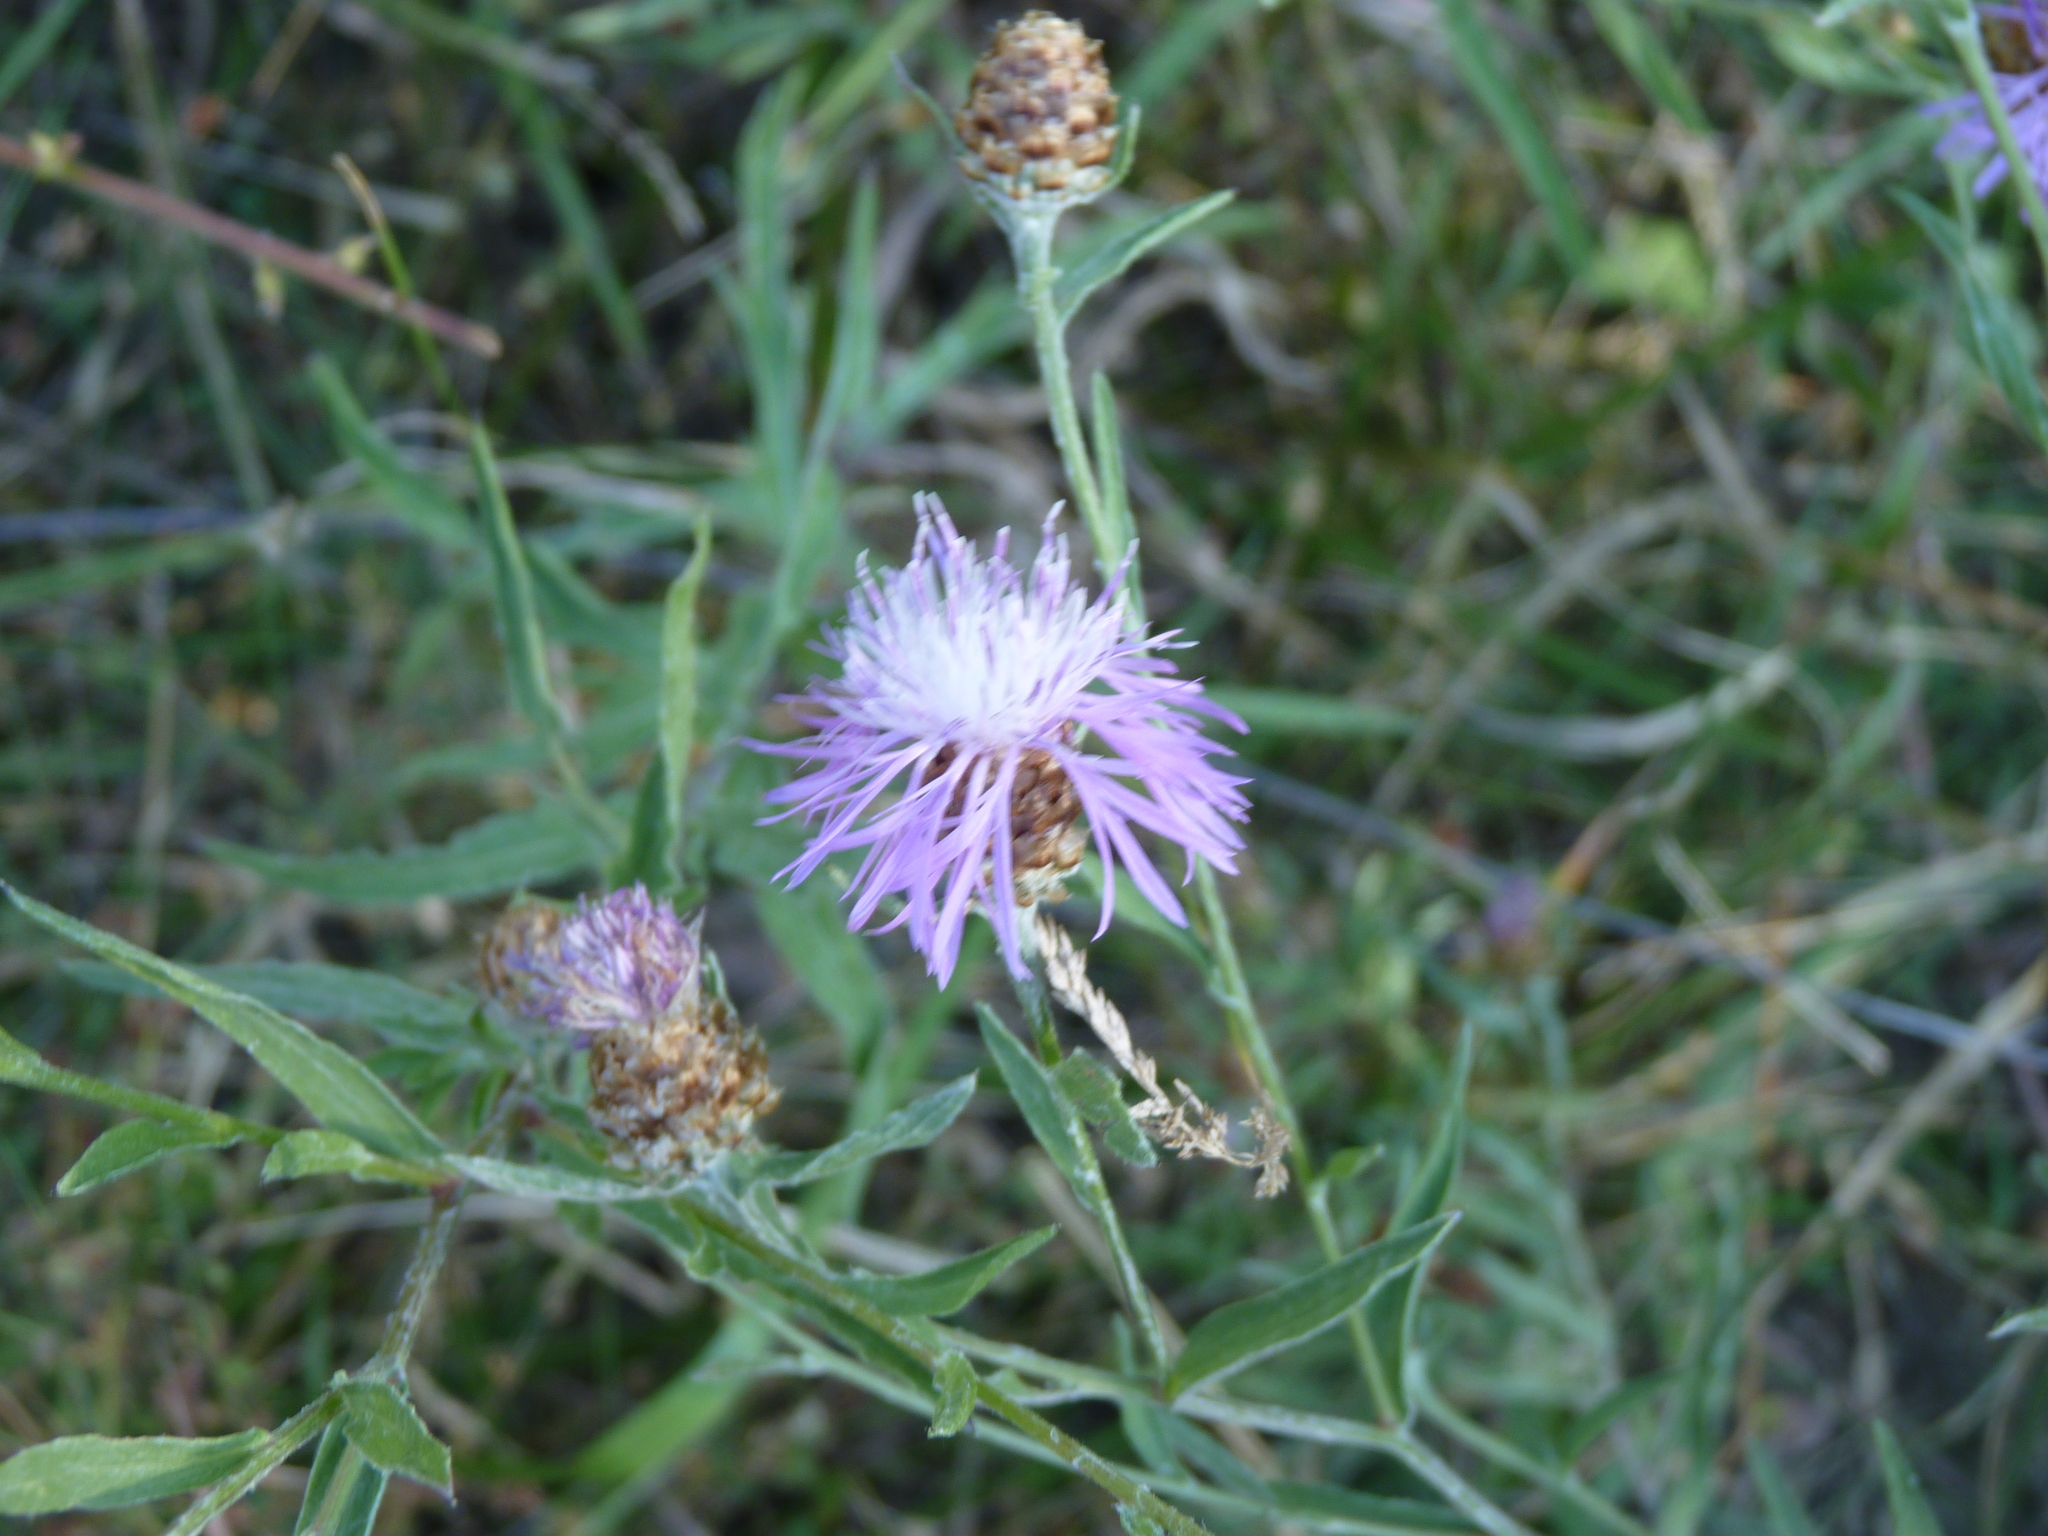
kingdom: Plantae
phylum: Tracheophyta
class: Magnoliopsida
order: Asterales
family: Asteraceae
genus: Centaurea
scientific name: Centaurea jacea
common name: Brown knapweed
